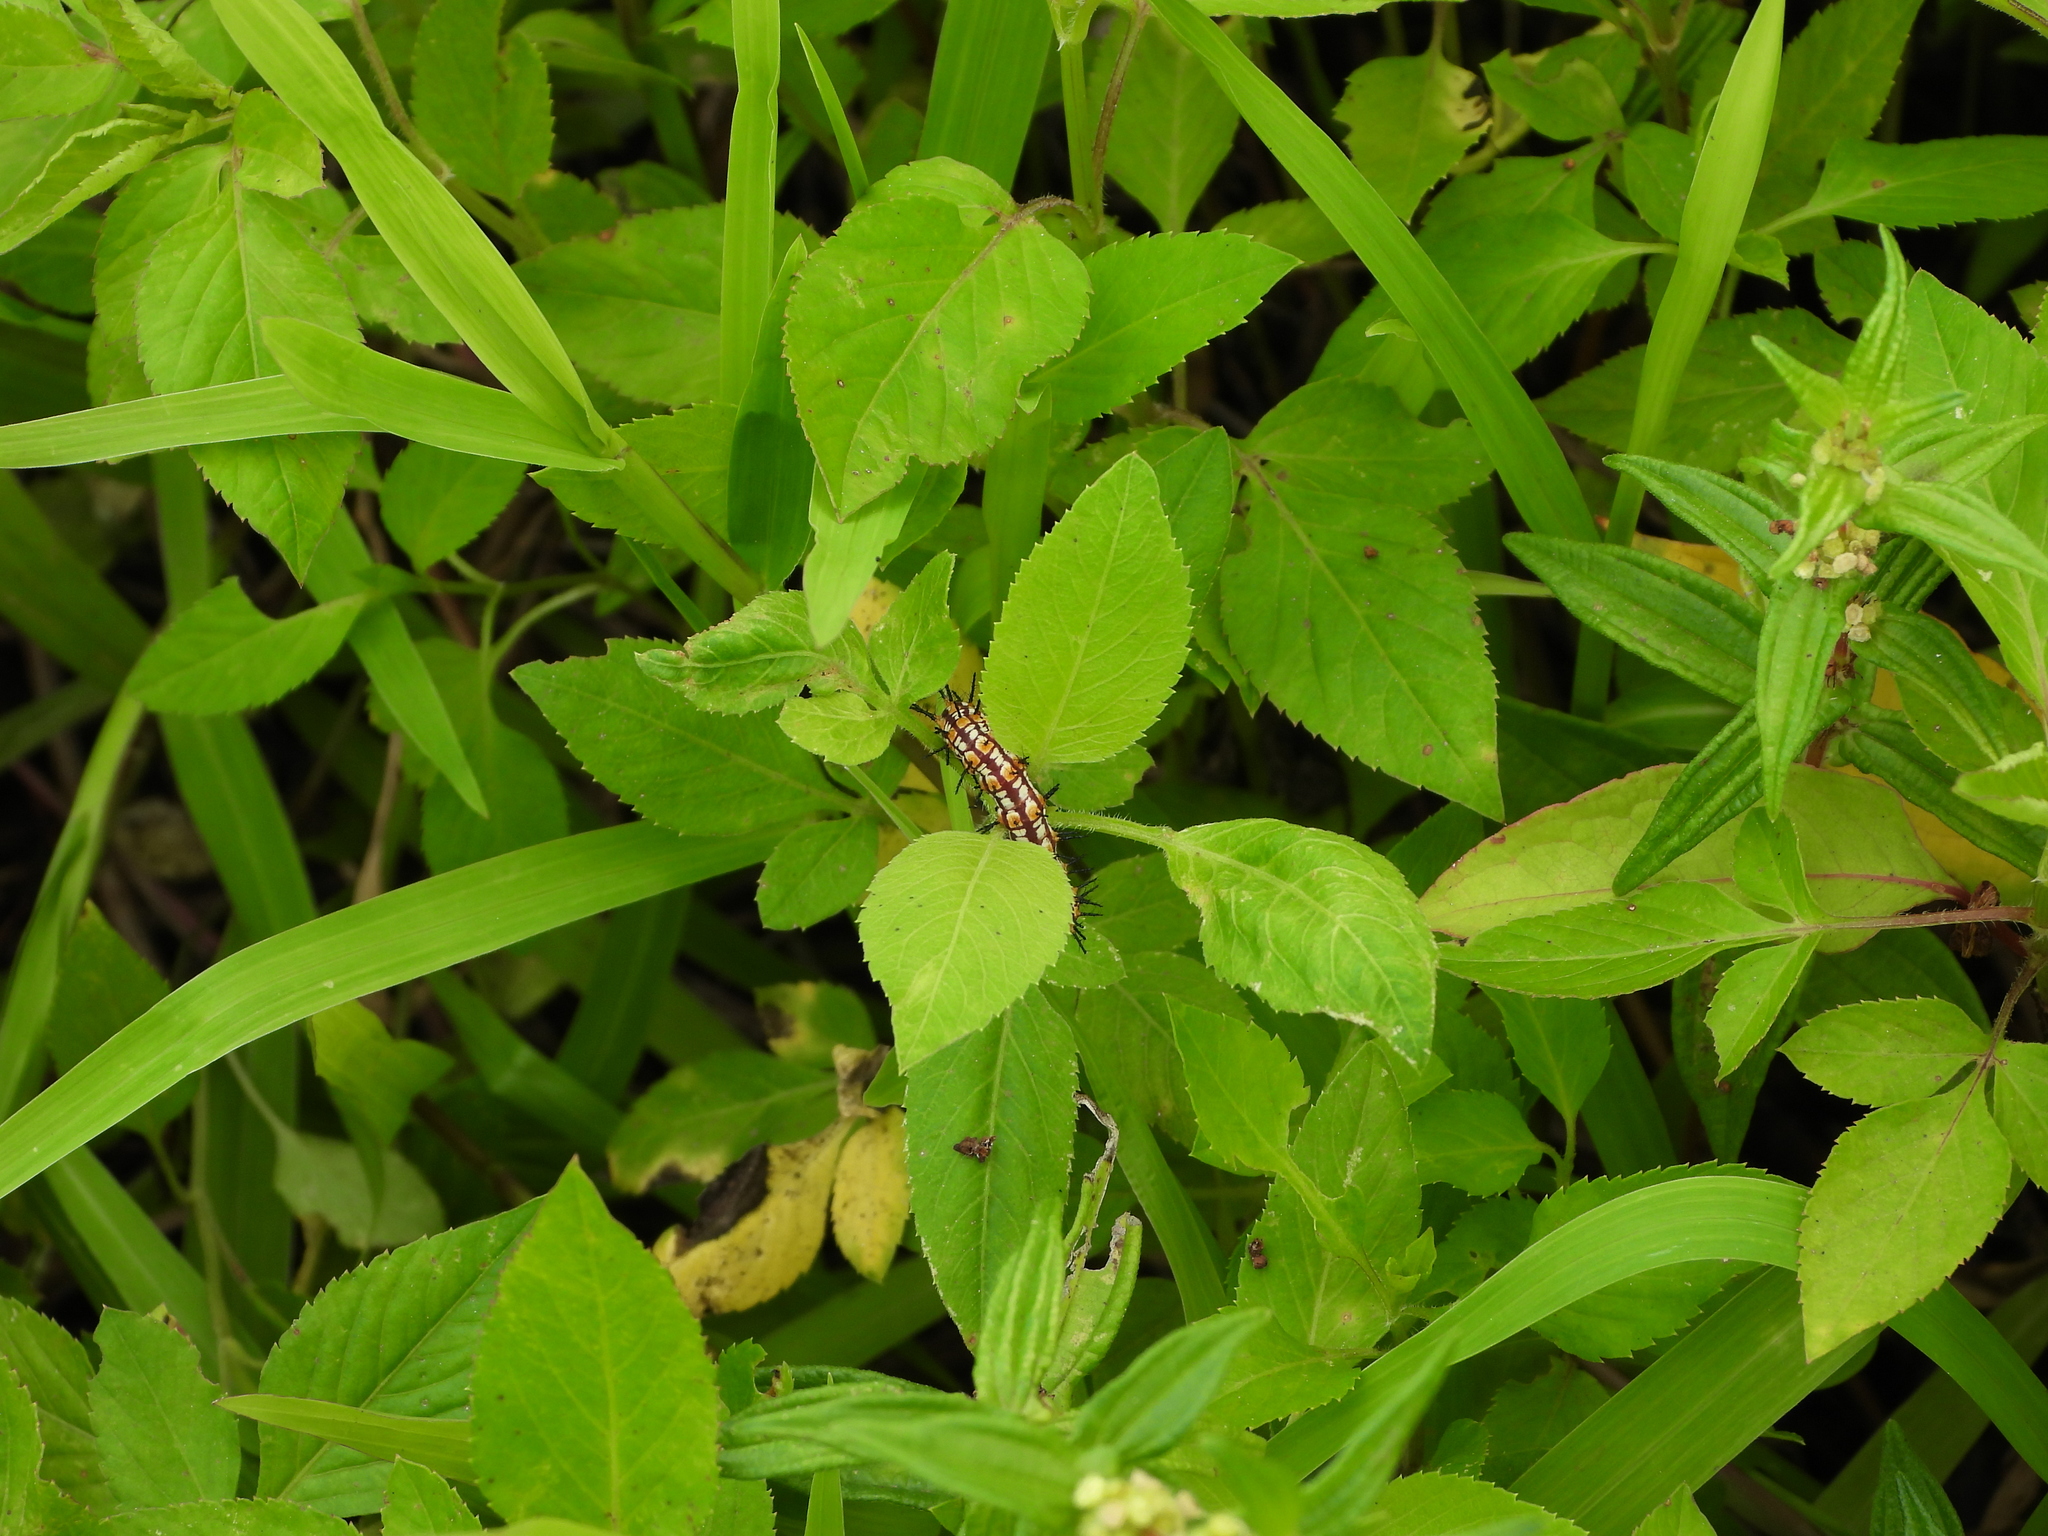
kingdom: Animalia
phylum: Arthropoda
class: Insecta
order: Lepidoptera
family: Nymphalidae
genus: Acraea
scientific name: Acraea Telchinia issoria
